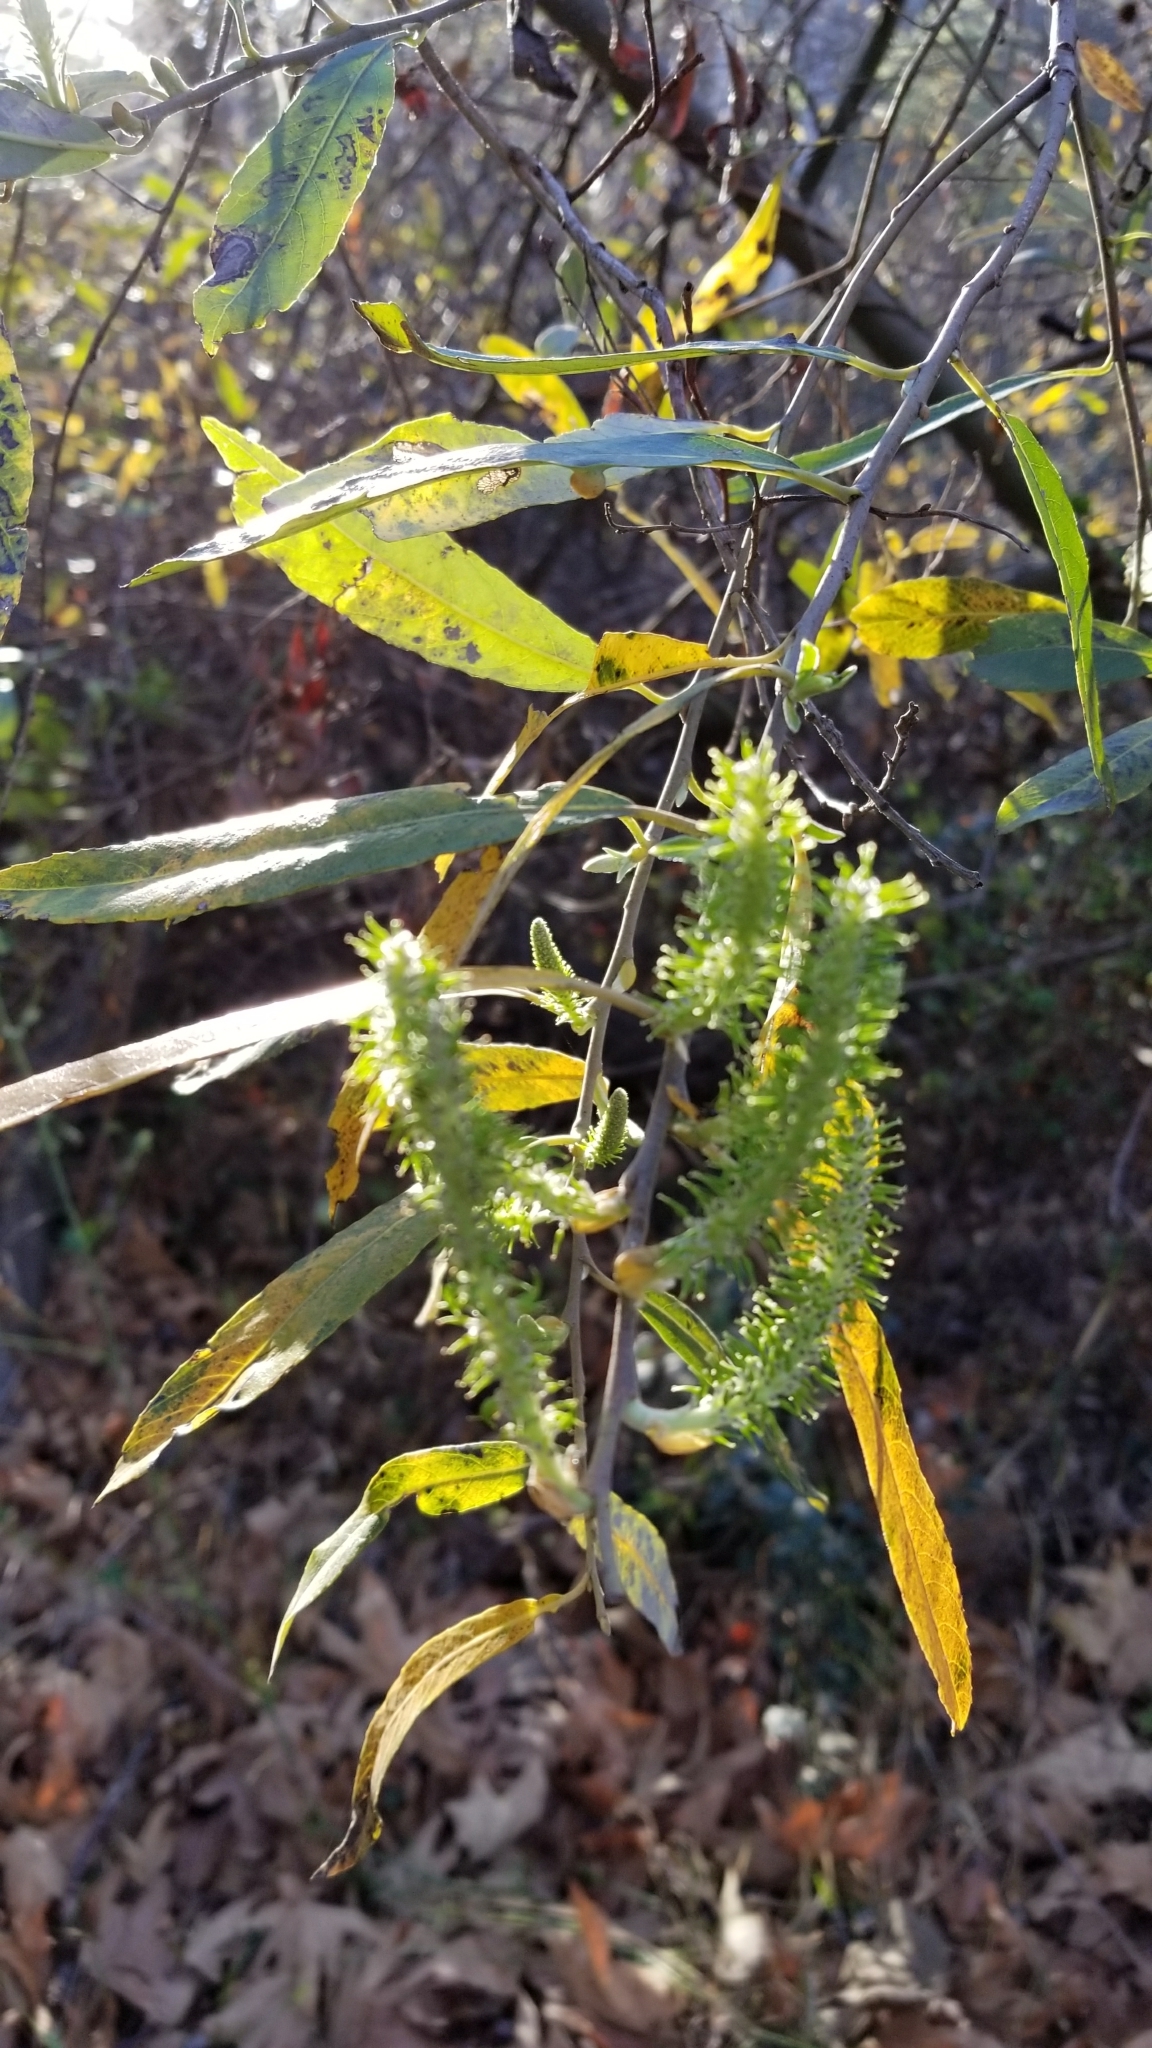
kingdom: Plantae
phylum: Tracheophyta
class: Magnoliopsida
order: Malpighiales
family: Salicaceae
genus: Salix
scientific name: Salix lasiolepis
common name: Arroyo willow
